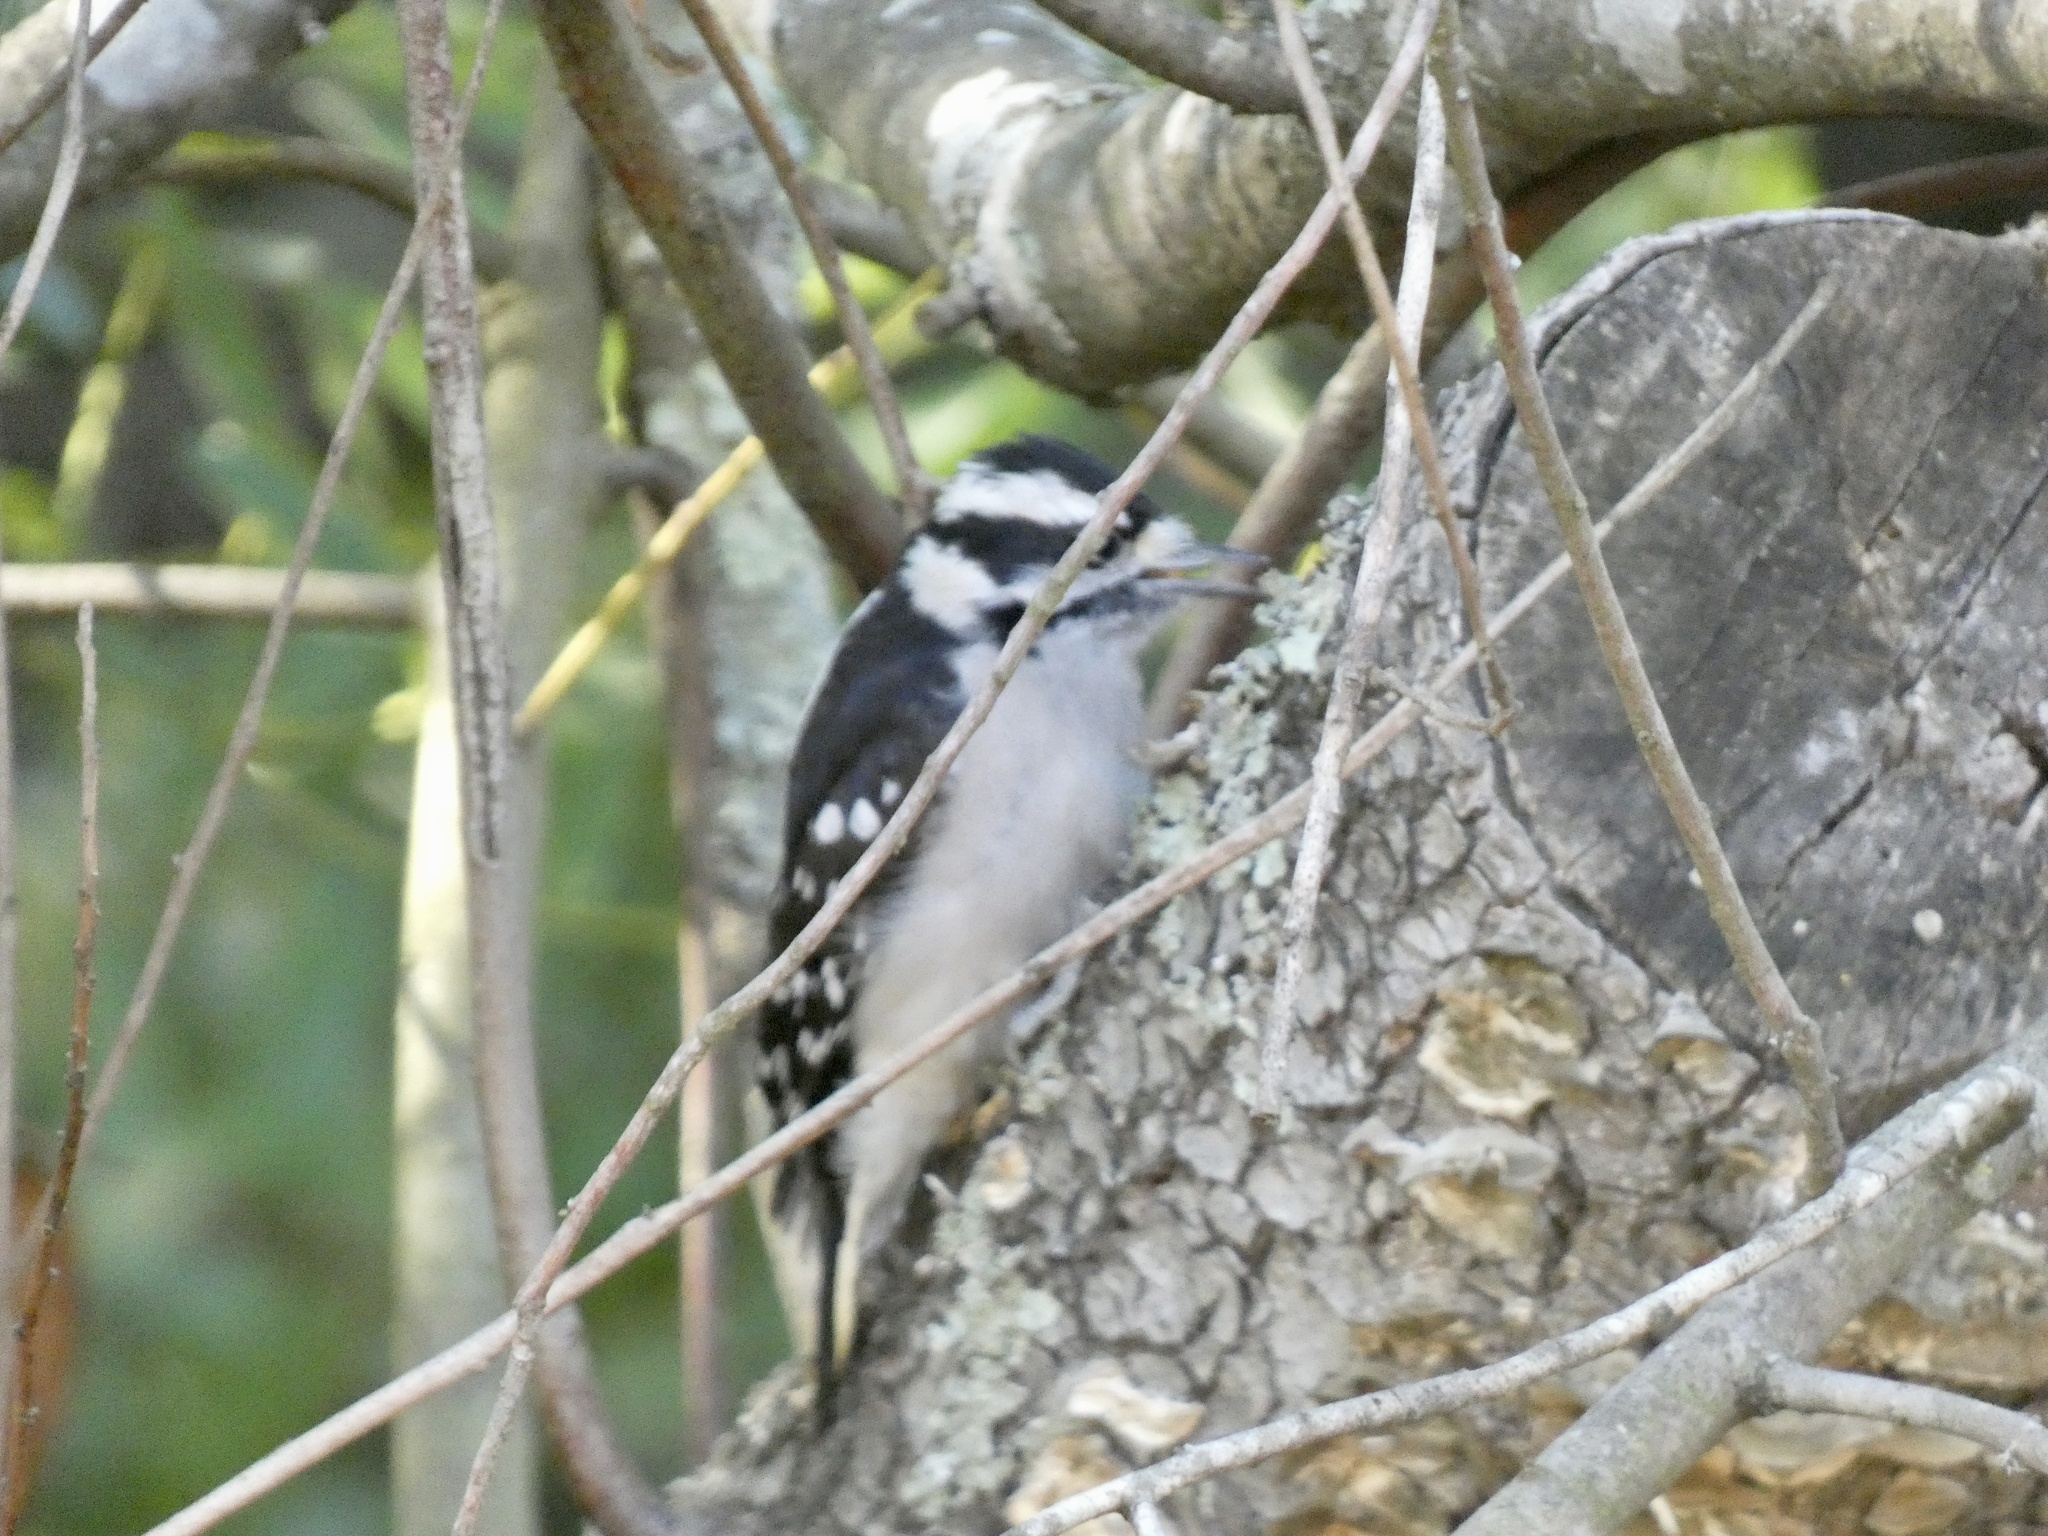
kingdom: Animalia
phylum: Chordata
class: Aves
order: Piciformes
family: Picidae
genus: Dryobates
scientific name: Dryobates pubescens
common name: Downy woodpecker
